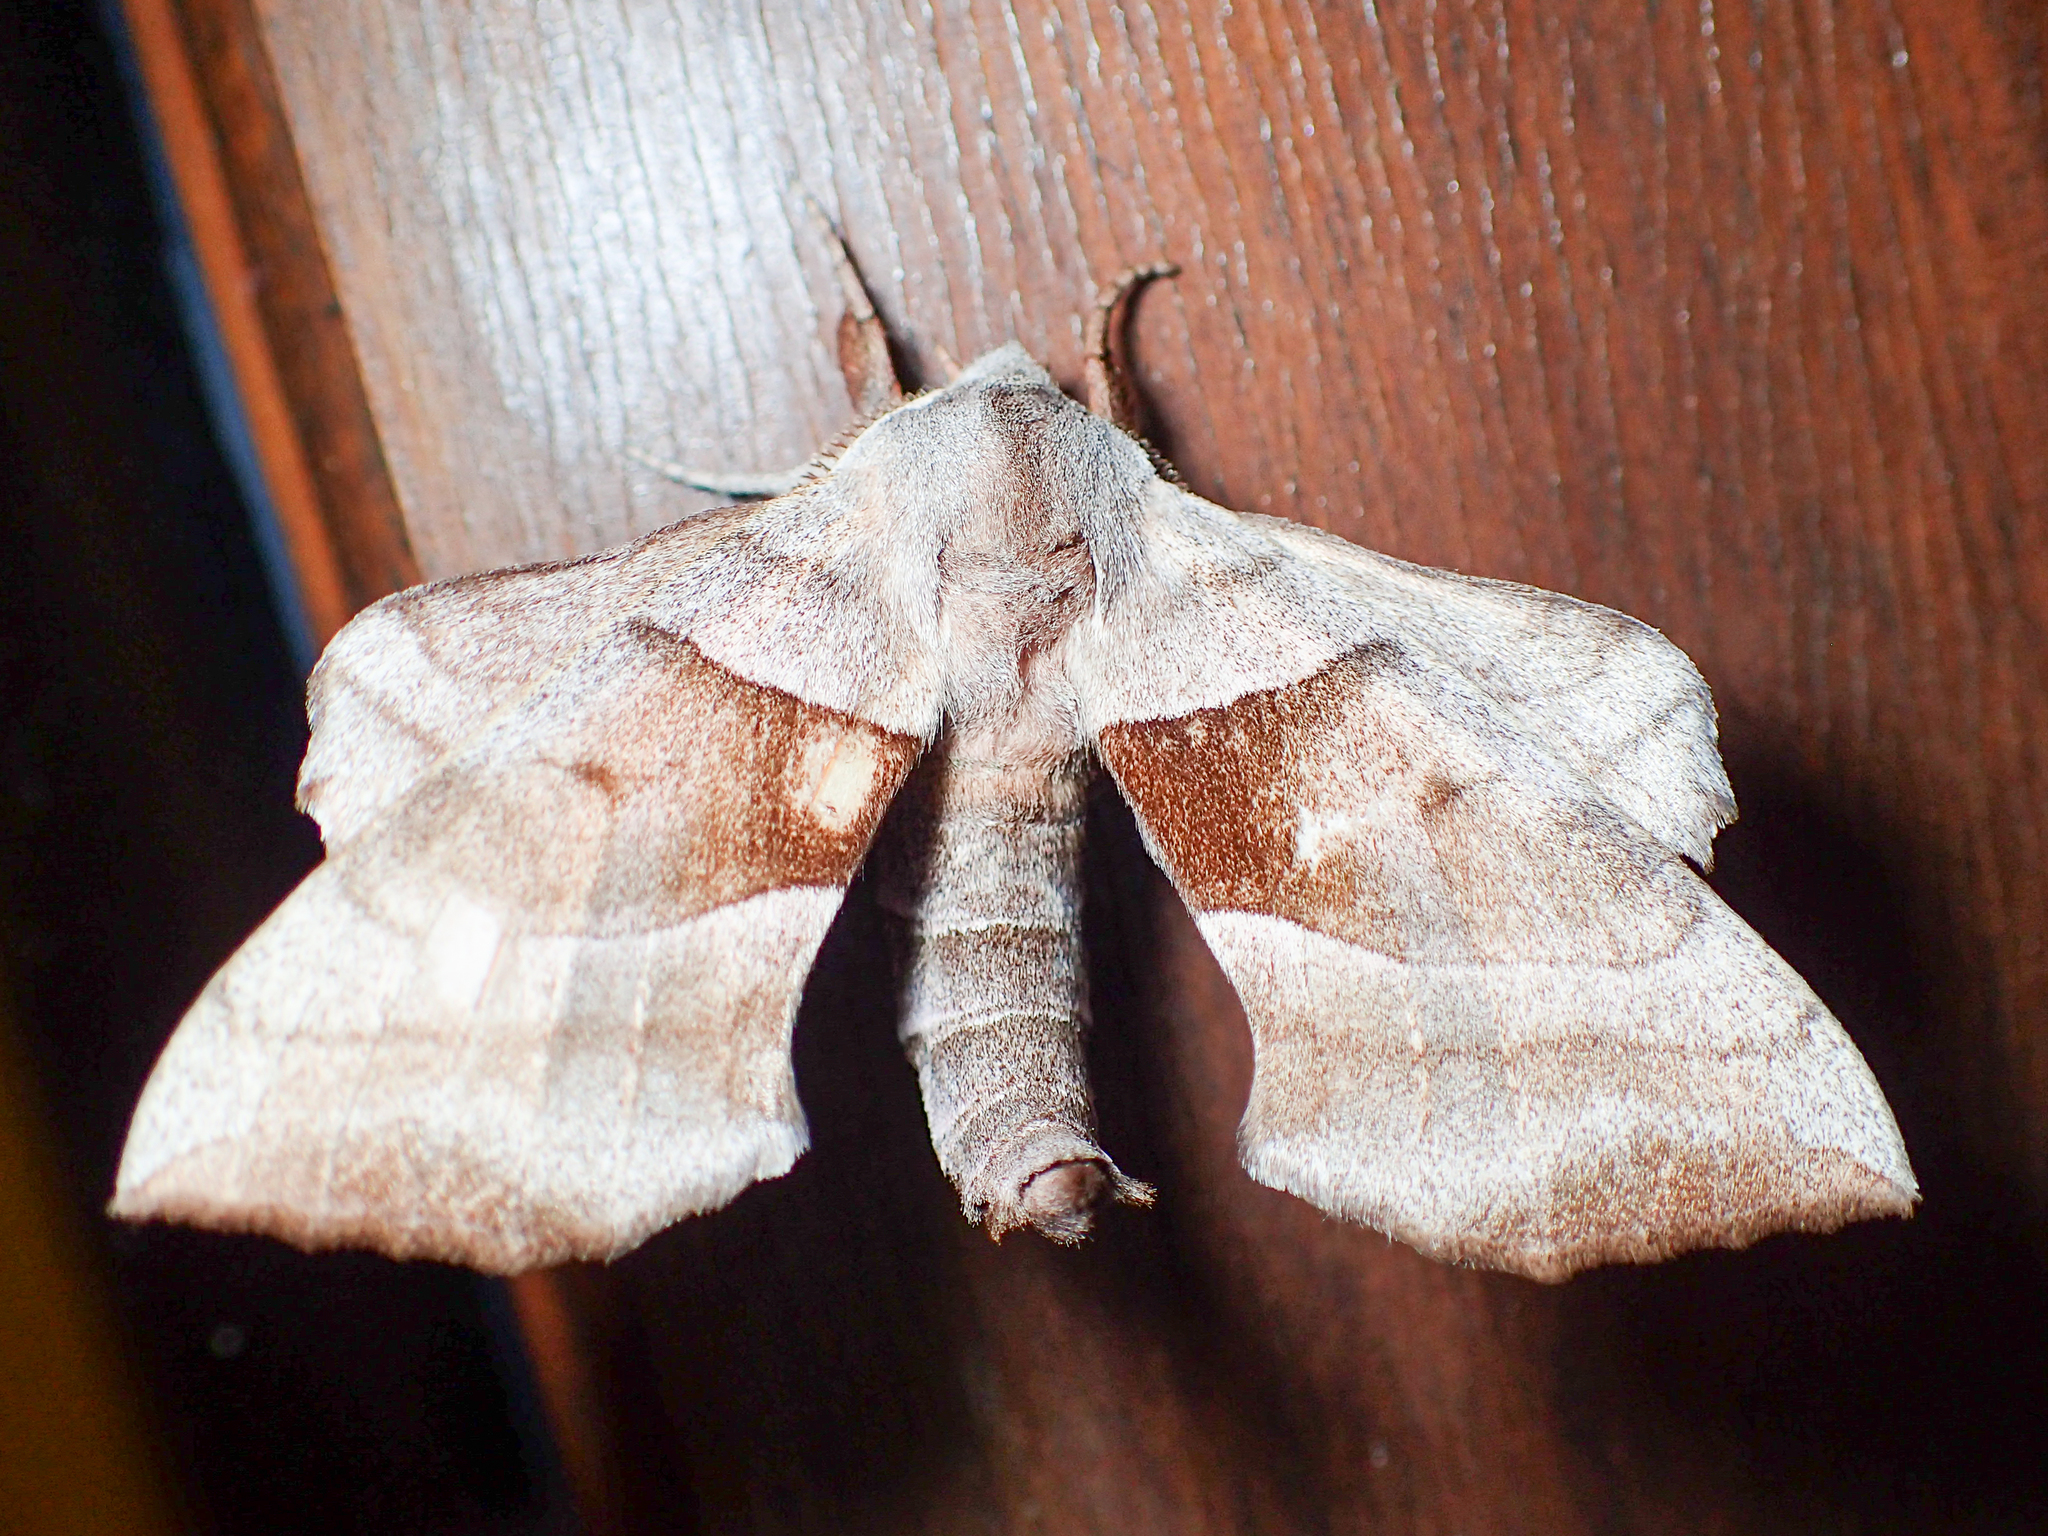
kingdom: Animalia
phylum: Arthropoda
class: Insecta
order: Lepidoptera
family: Sphingidae
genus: Amorpha
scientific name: Amorpha juglandis
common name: Walnut sphinx
